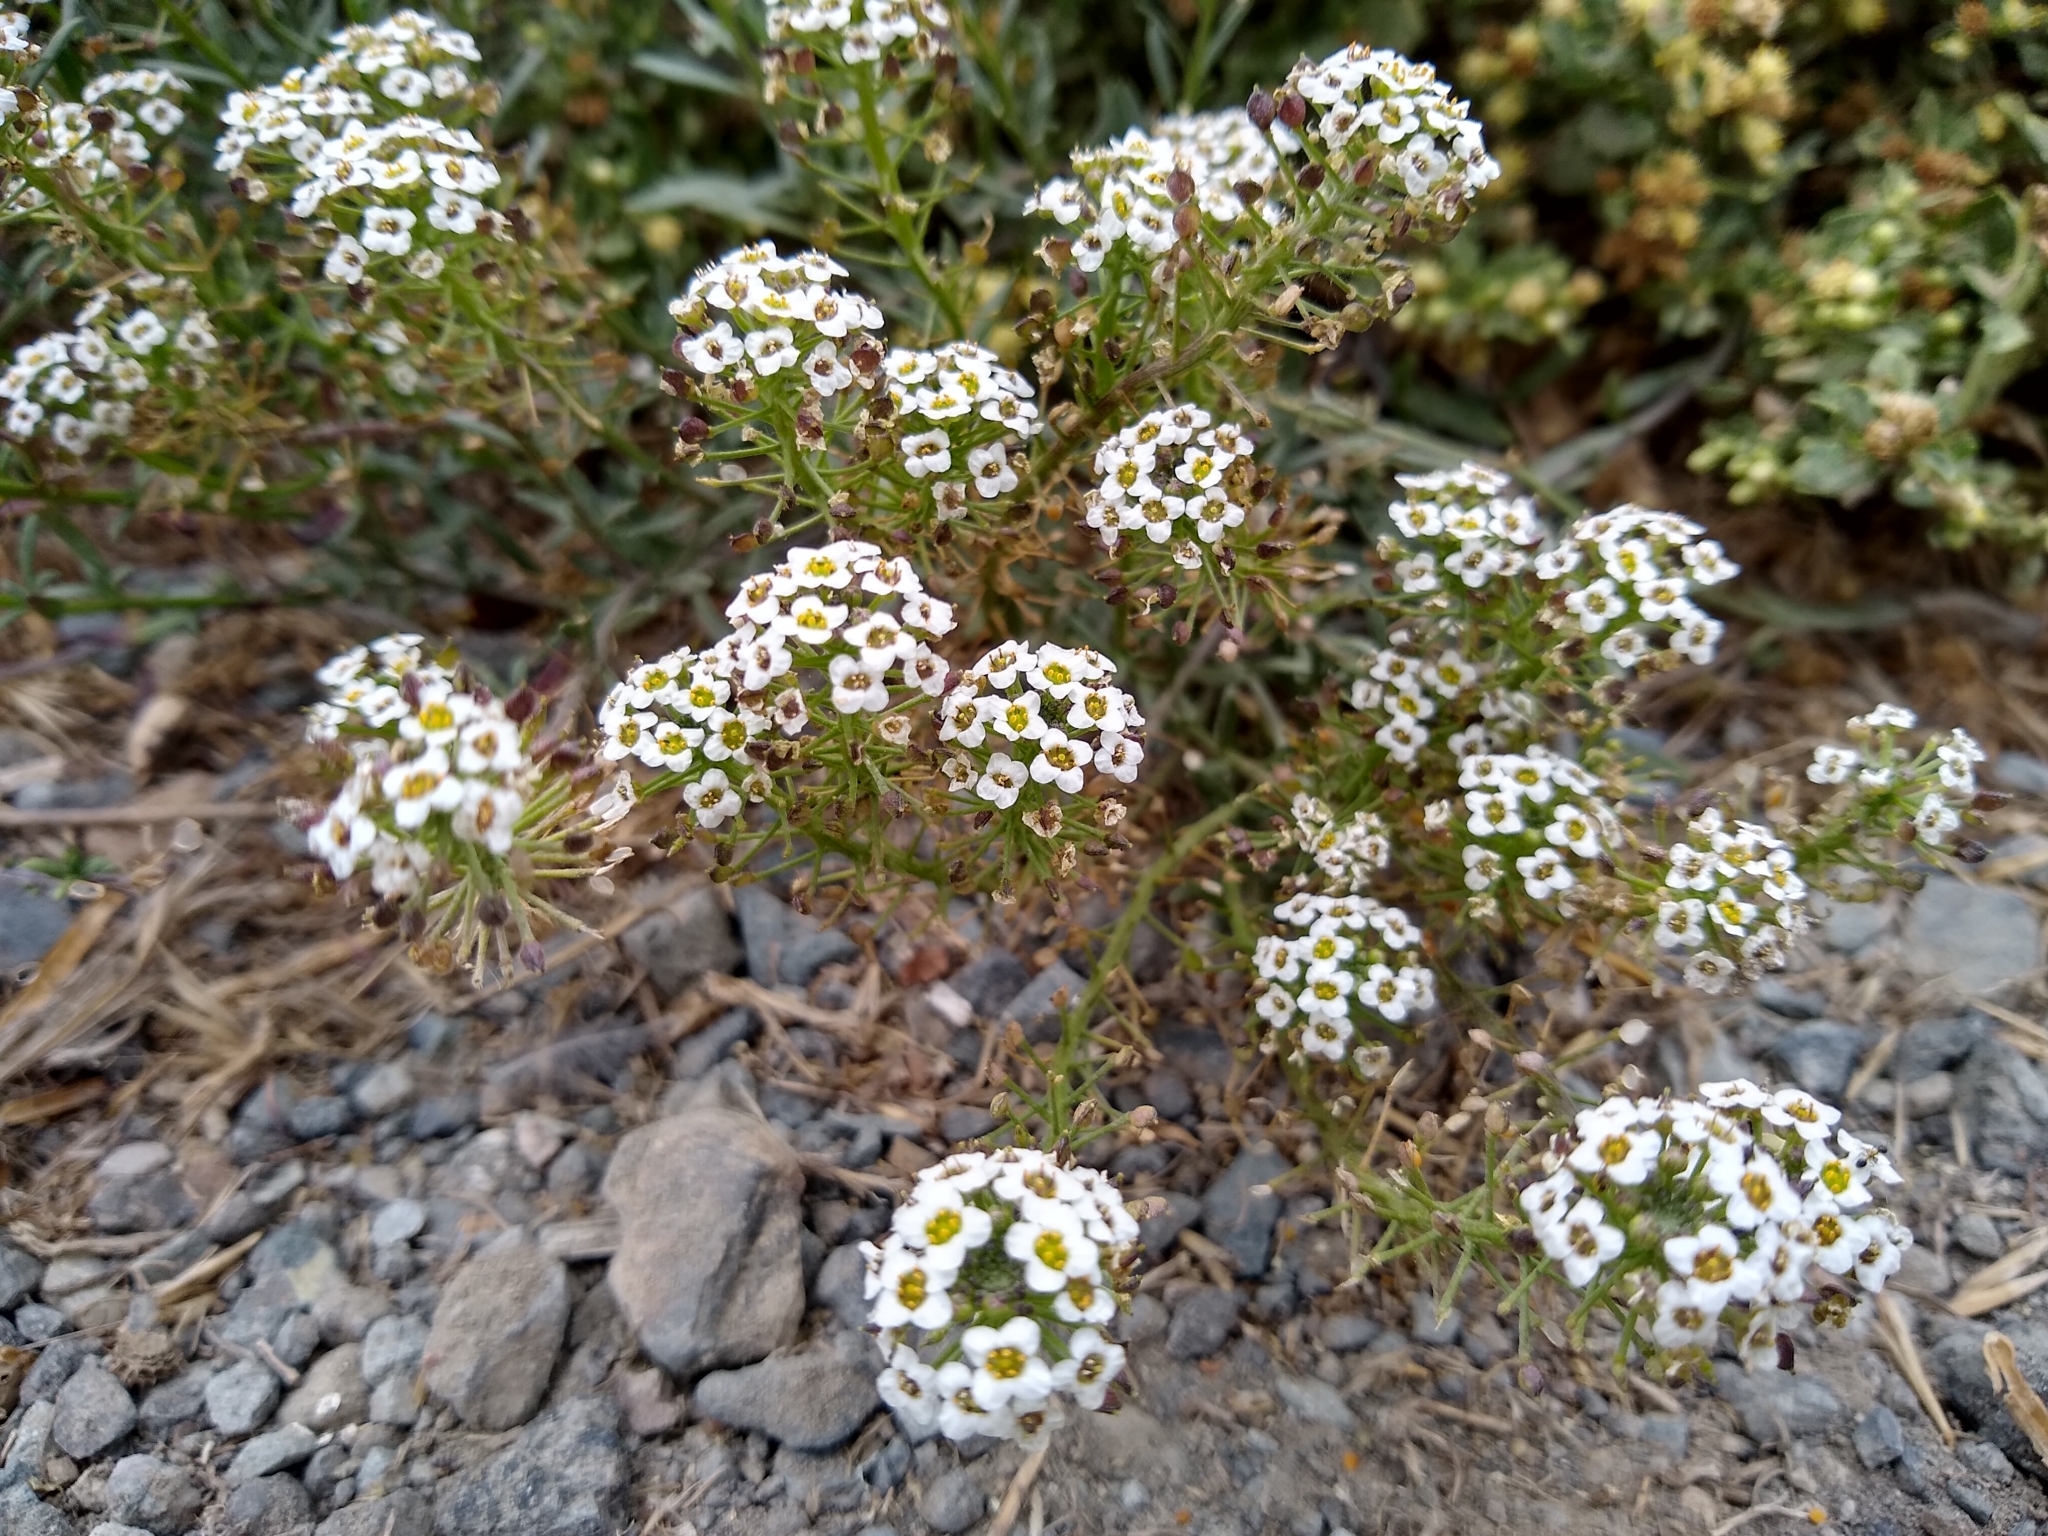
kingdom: Plantae
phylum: Tracheophyta
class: Magnoliopsida
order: Brassicales
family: Brassicaceae
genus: Lobularia
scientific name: Lobularia maritima
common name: Sweet alison
